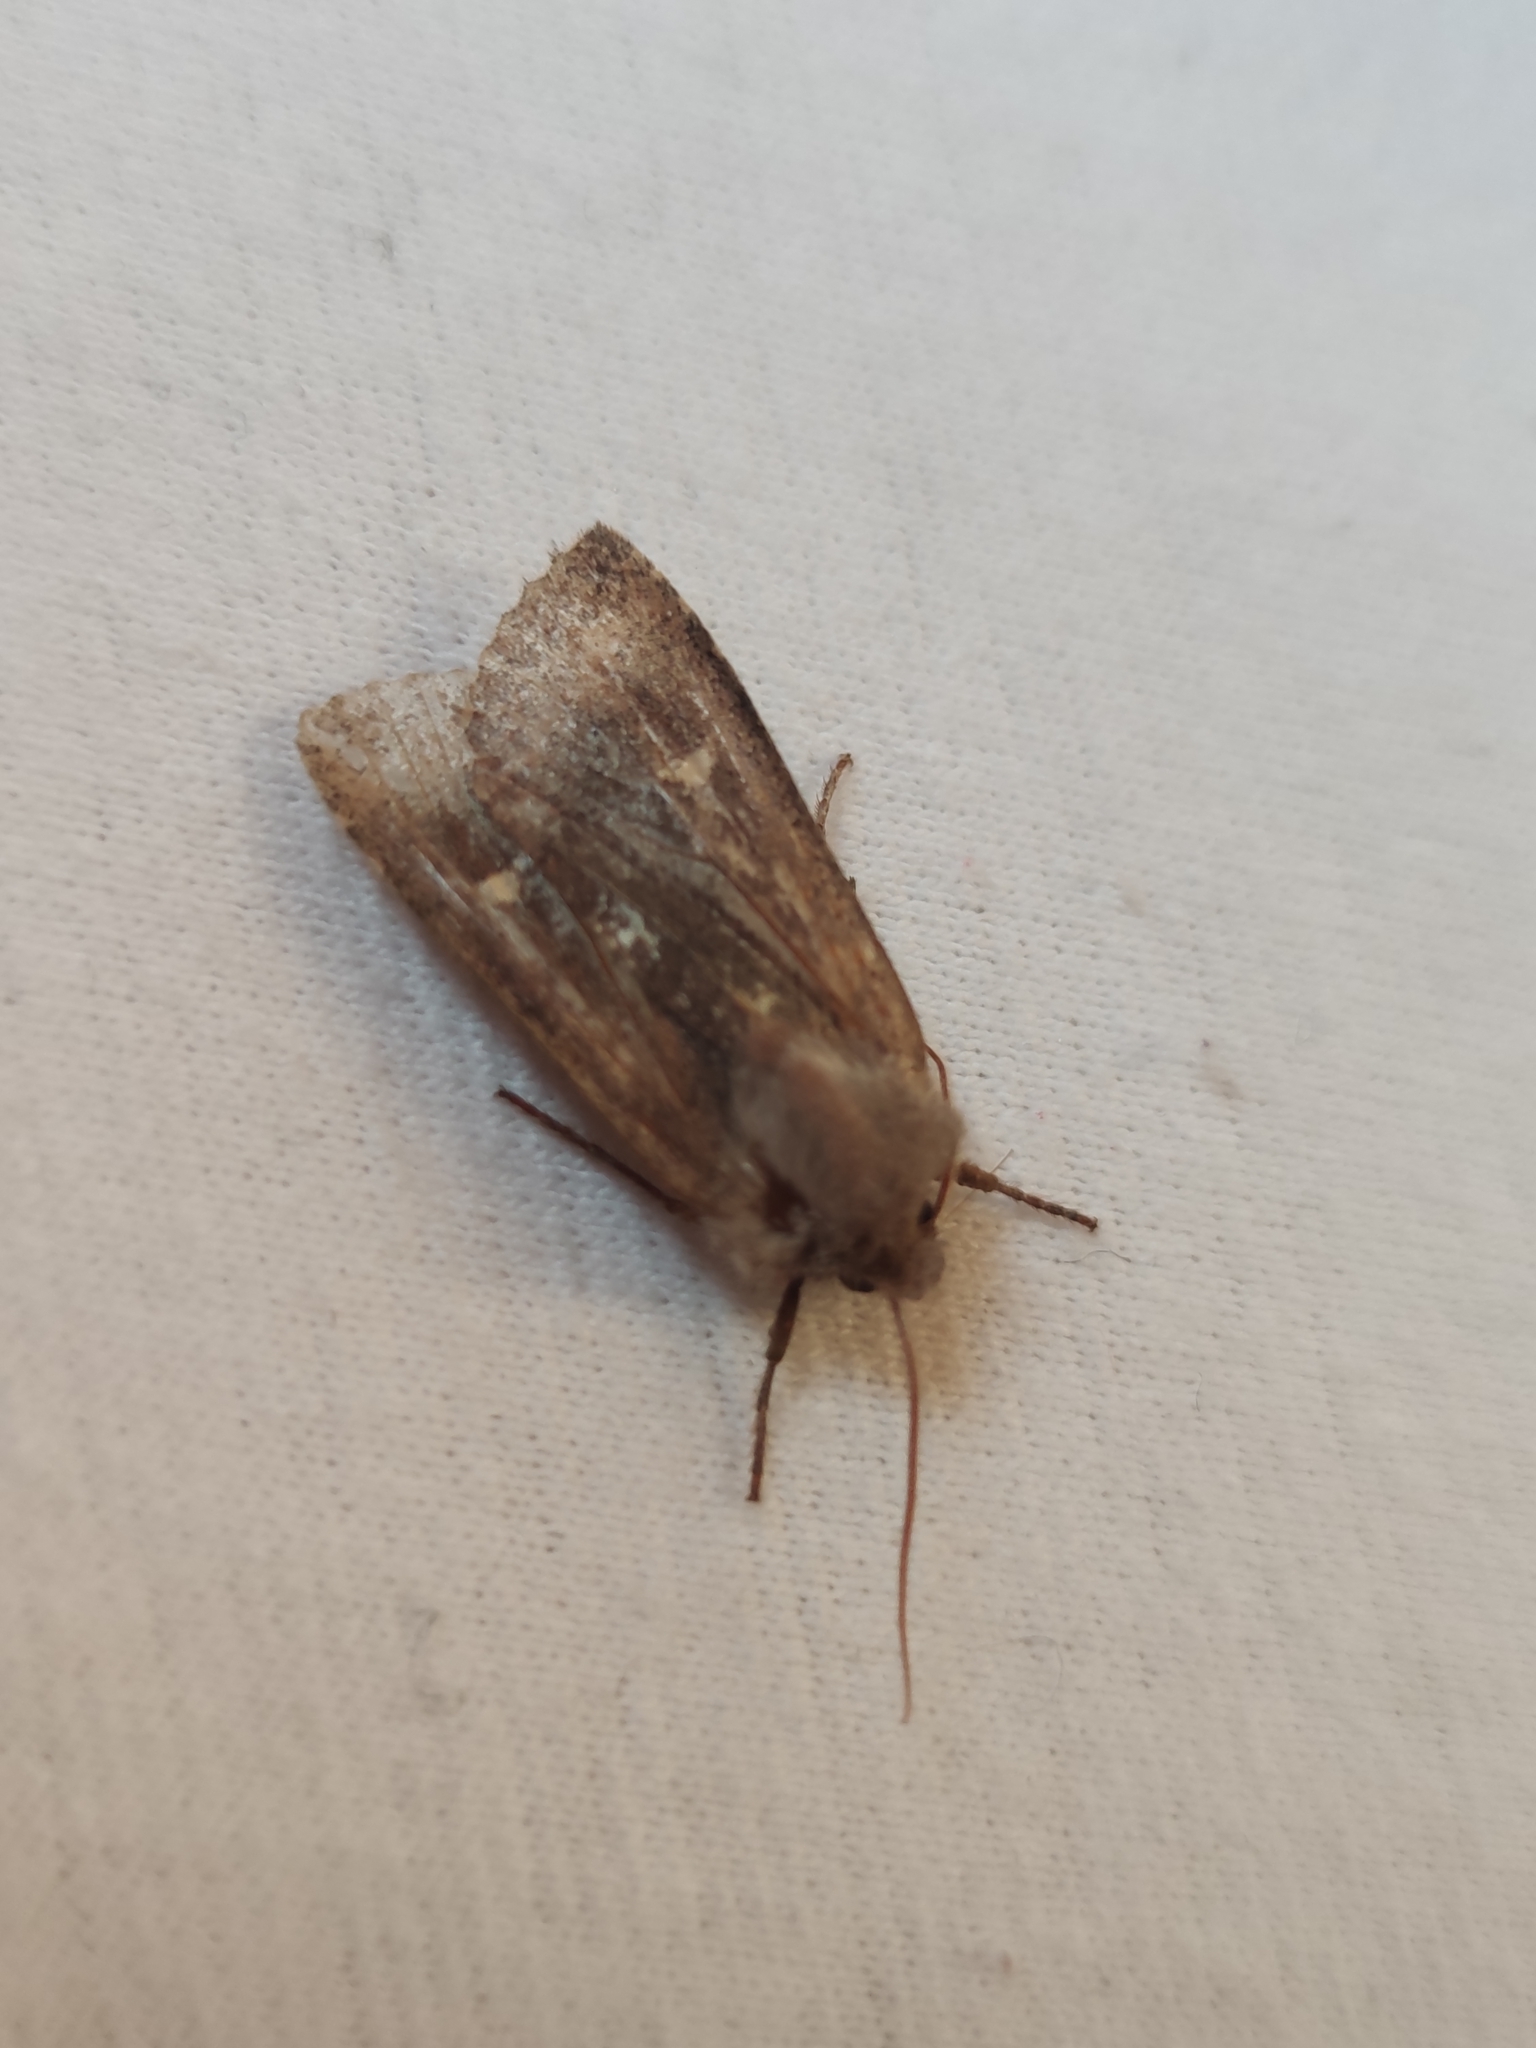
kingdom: Animalia
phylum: Arthropoda
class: Insecta
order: Lepidoptera
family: Noctuidae
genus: Eupsilia
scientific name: Eupsilia transversa
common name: Satellite
